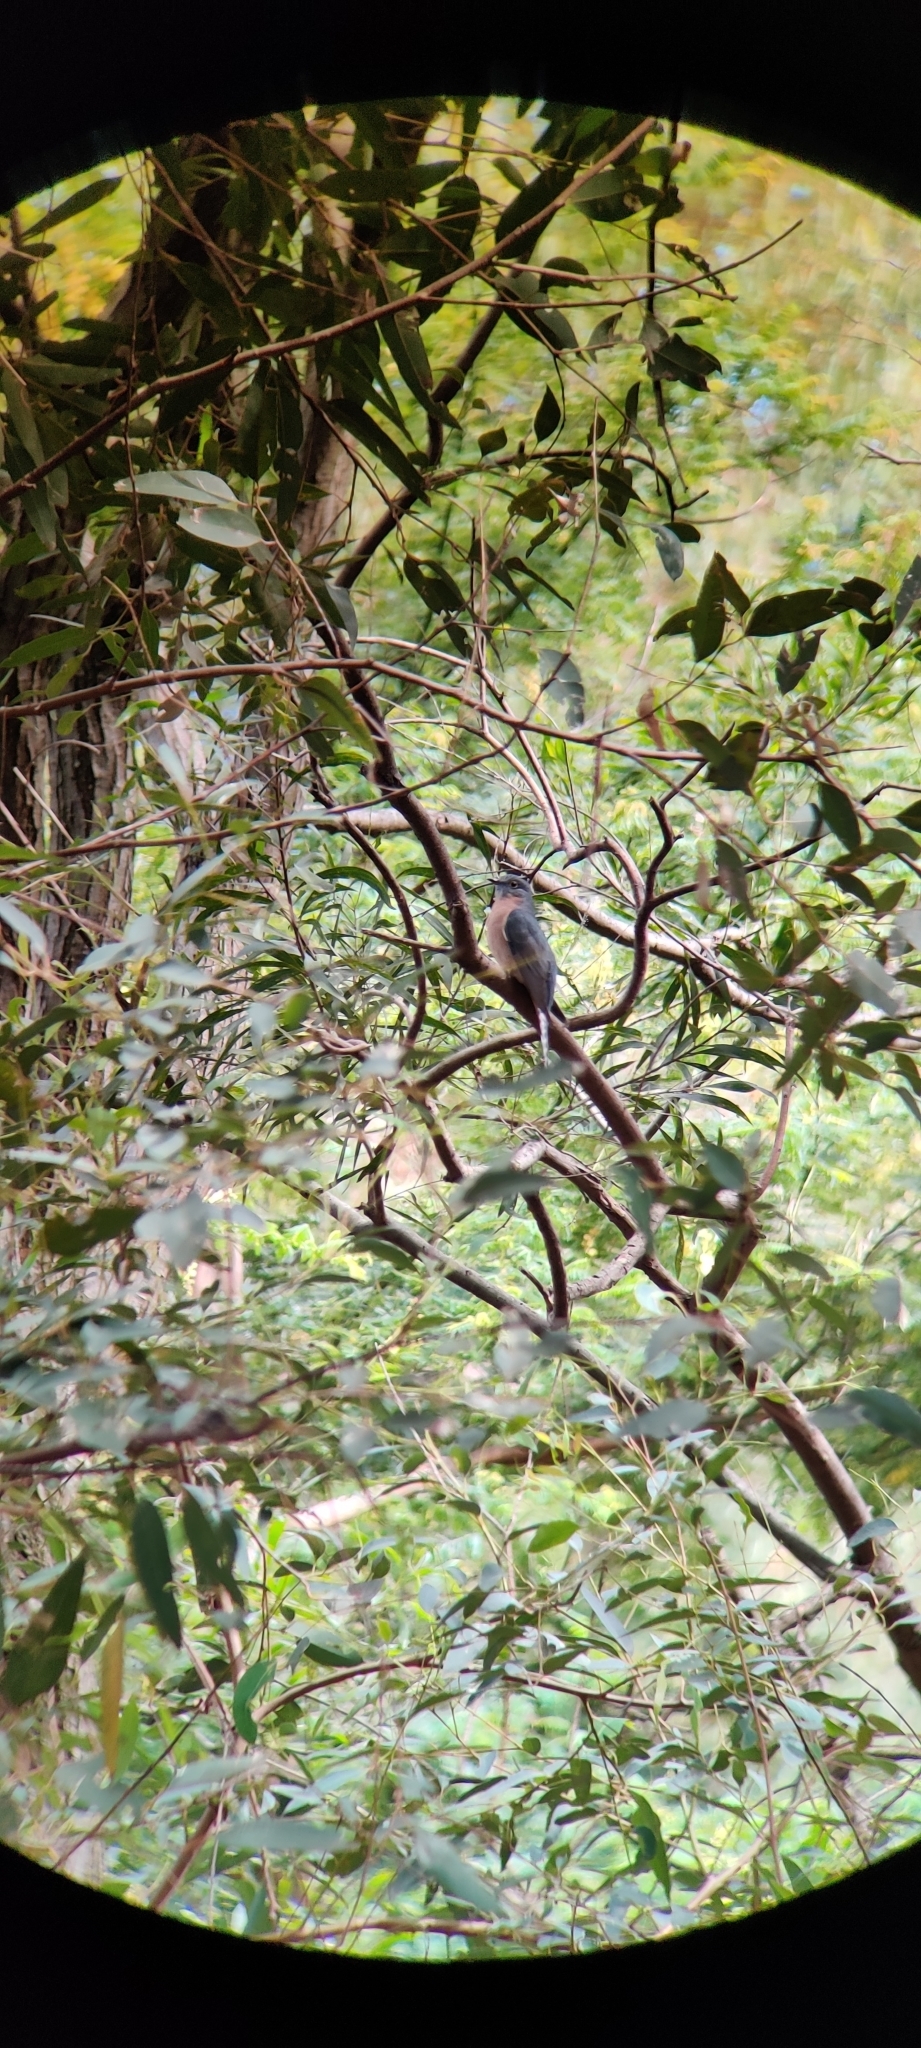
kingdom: Animalia
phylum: Chordata
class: Aves
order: Cuculiformes
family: Cuculidae
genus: Cacomantis
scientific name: Cacomantis flabelliformis
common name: Fan-tailed cuckoo
